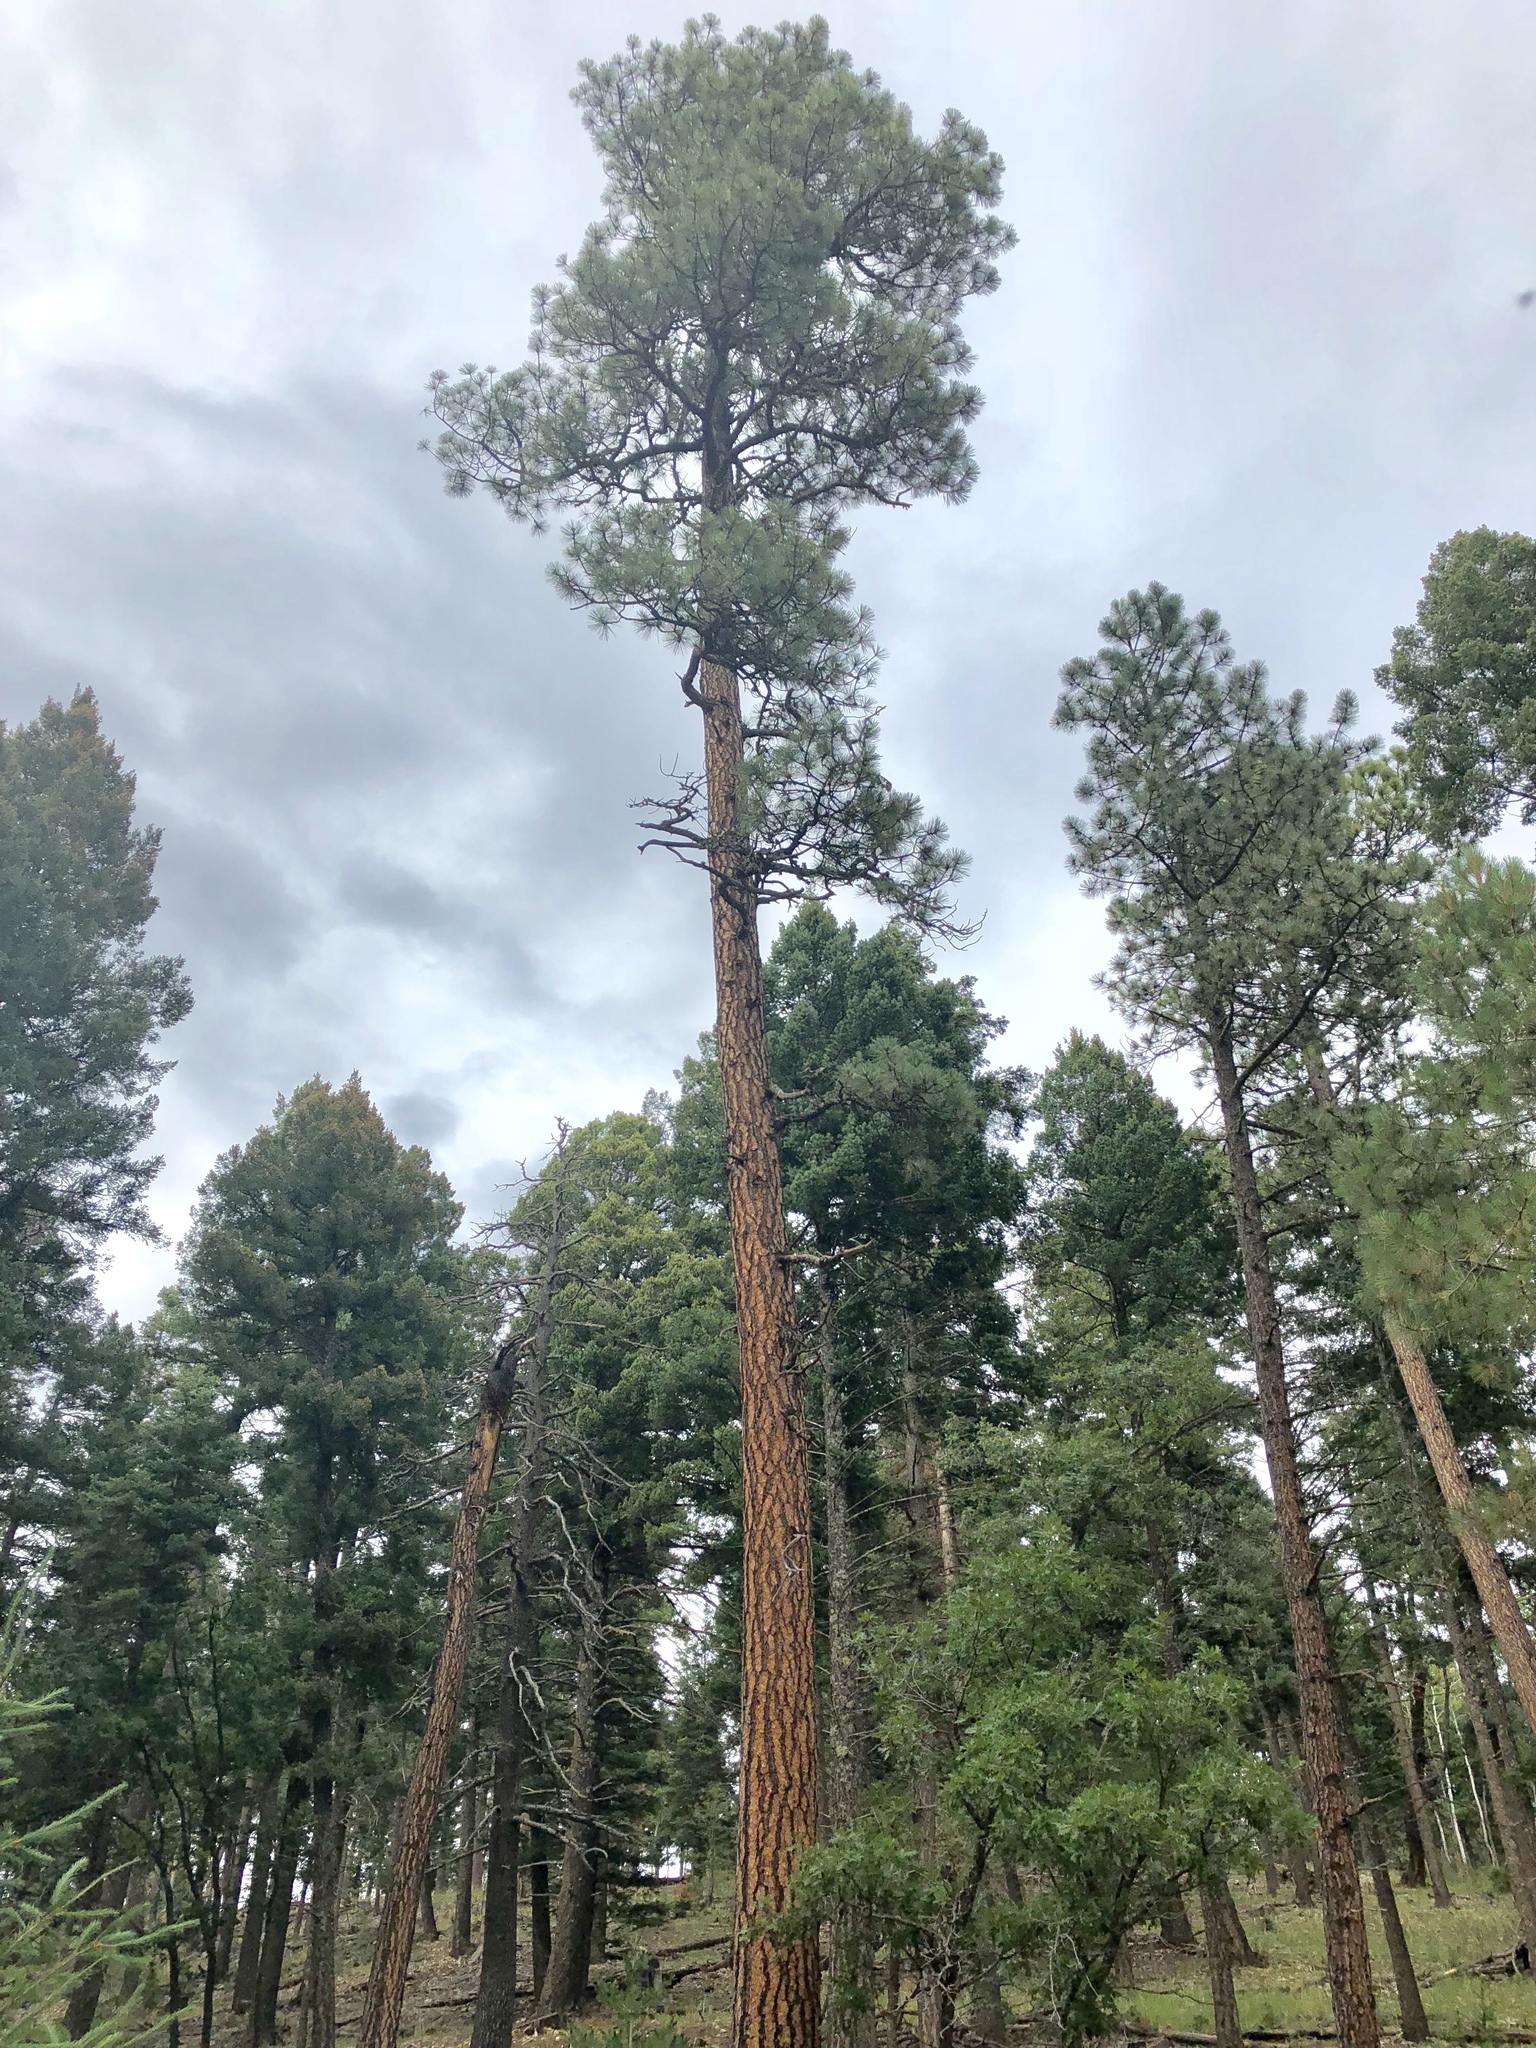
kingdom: Plantae
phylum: Tracheophyta
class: Pinopsida
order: Pinales
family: Pinaceae
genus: Pinus
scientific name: Pinus ponderosa
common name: Western yellow-pine
